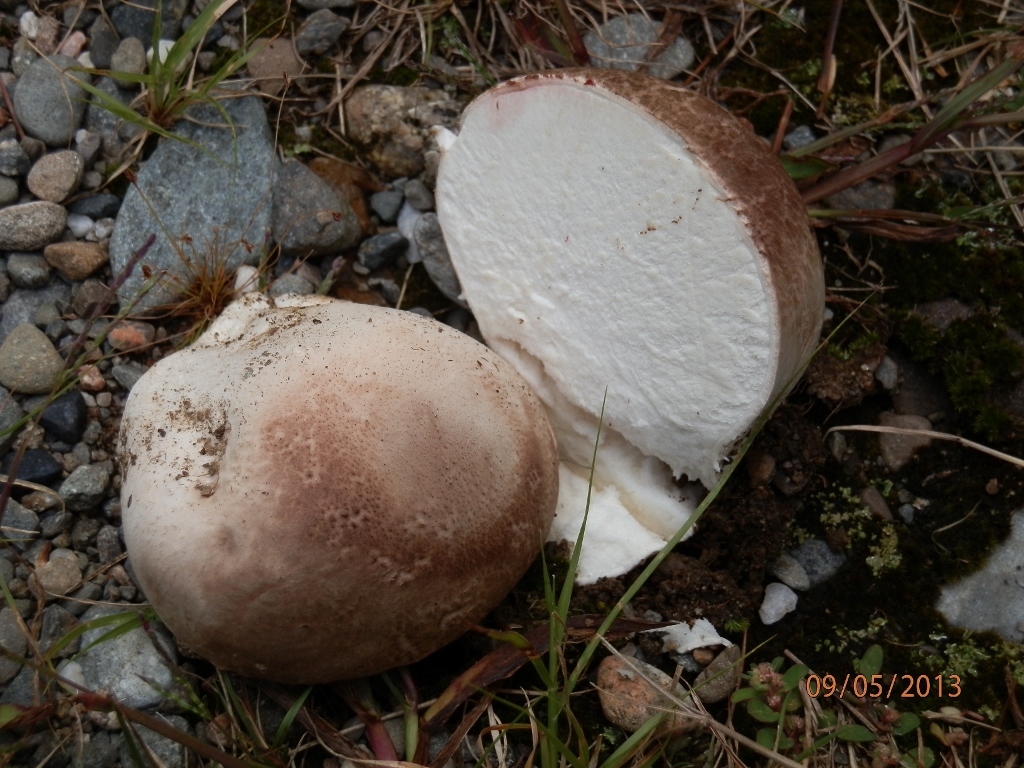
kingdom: Fungi
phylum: Basidiomycota
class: Agaricomycetes
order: Agaricales
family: Lycoperdaceae
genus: Calvatia
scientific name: Calvatia cyathiformis
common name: Purple-spored puffball
